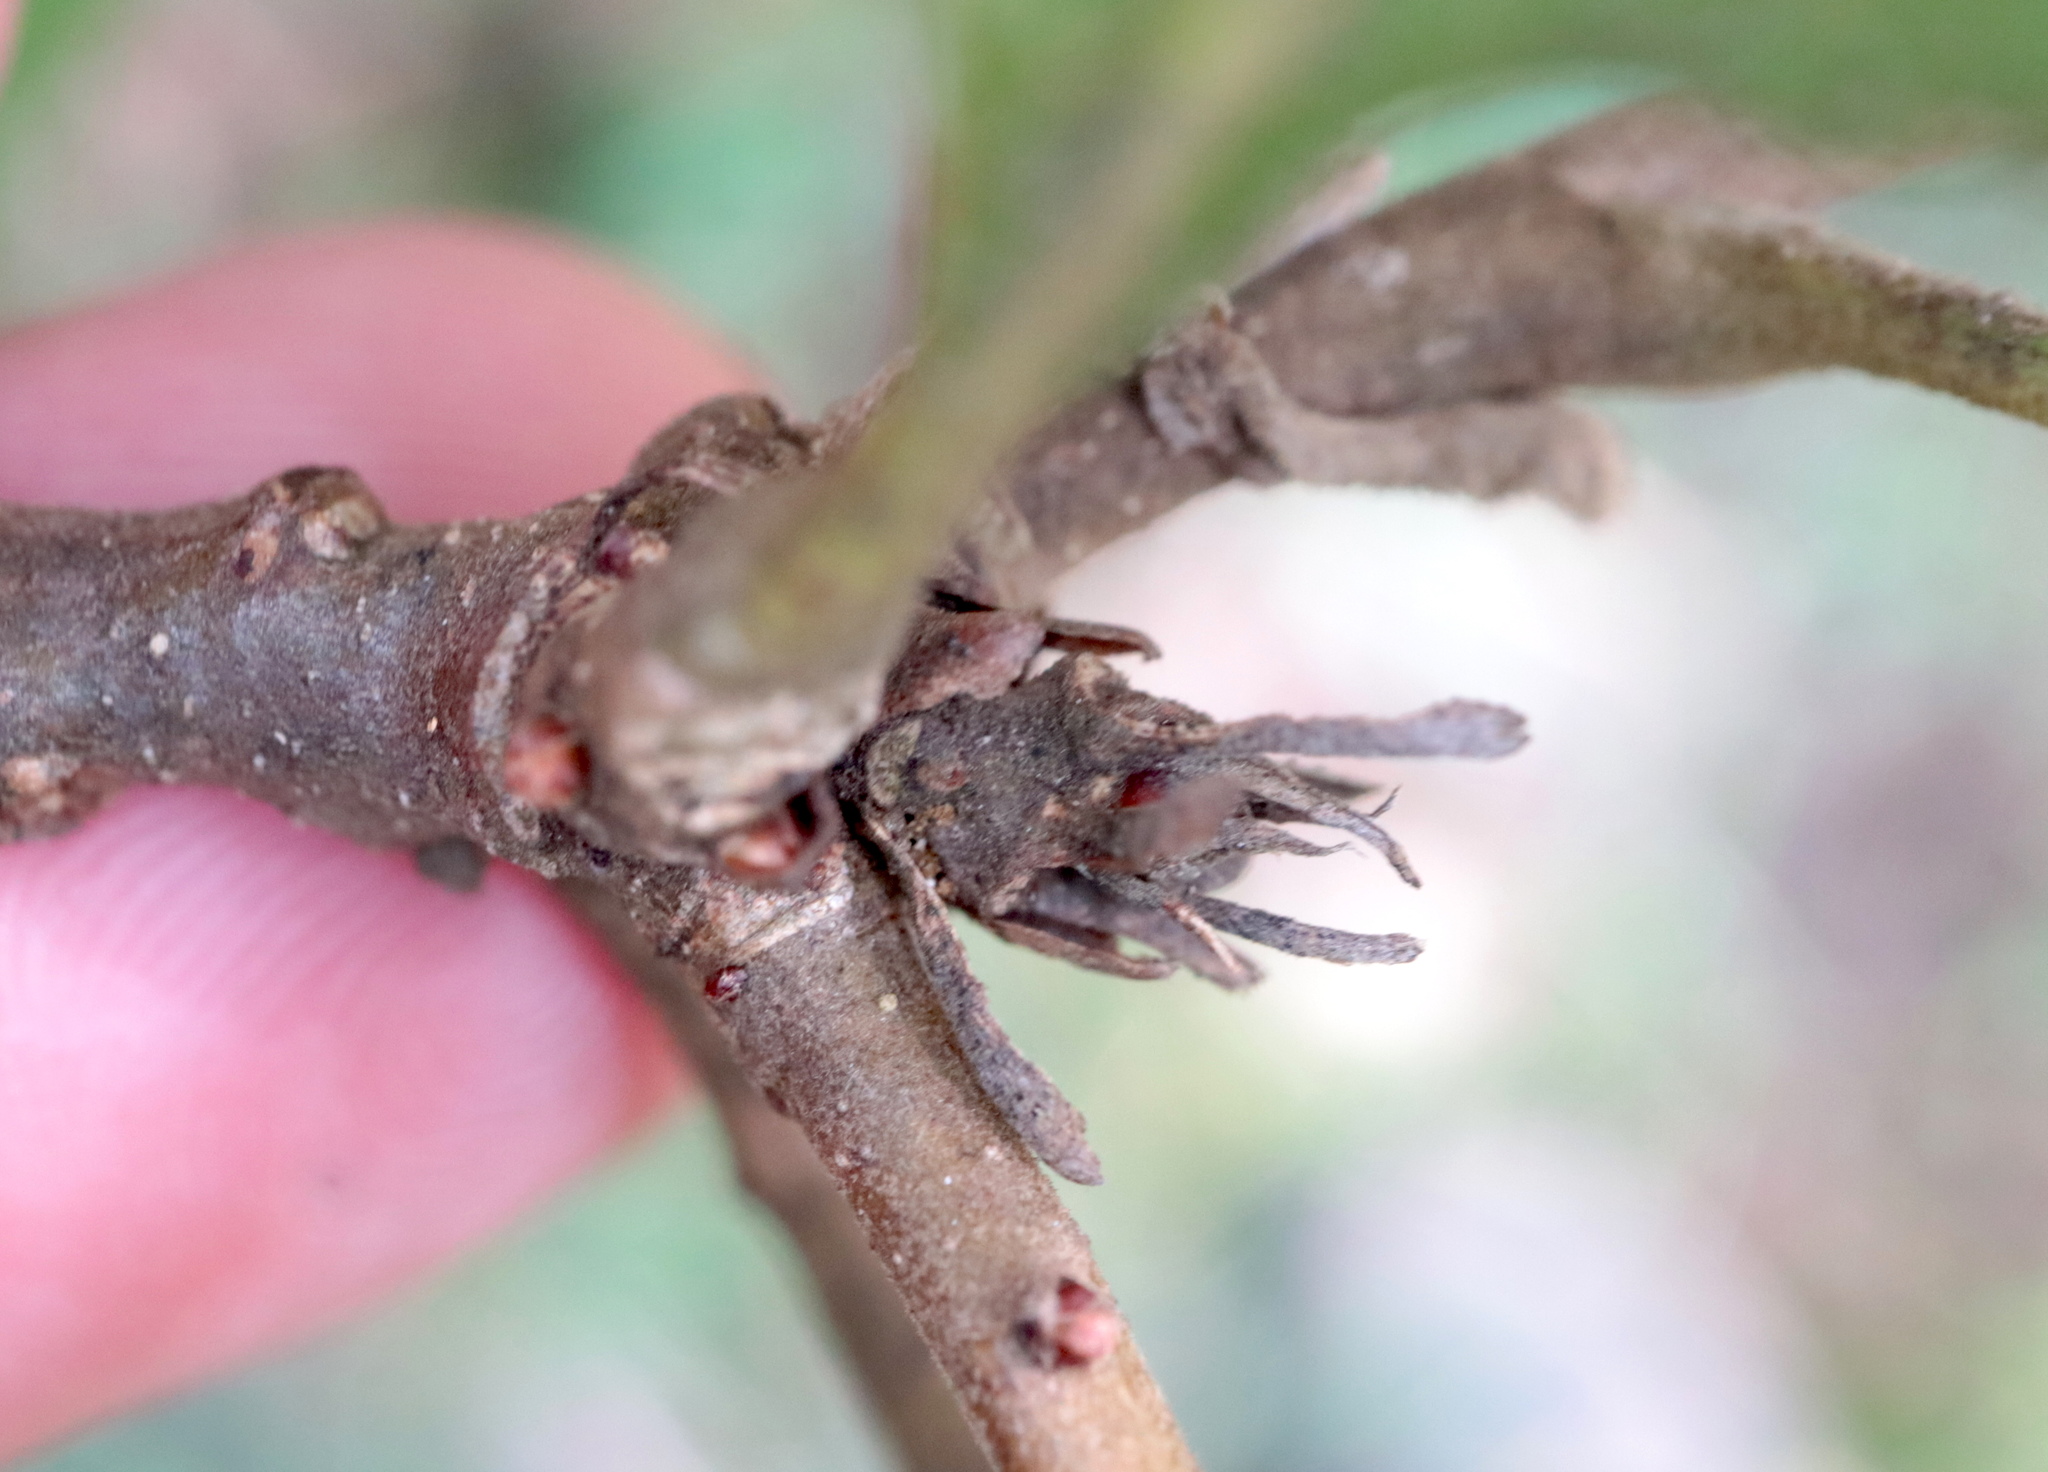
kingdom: Animalia
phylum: Arthropoda
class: Insecta
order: Hymenoptera
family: Cynipidae
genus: Andricus
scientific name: Andricus
